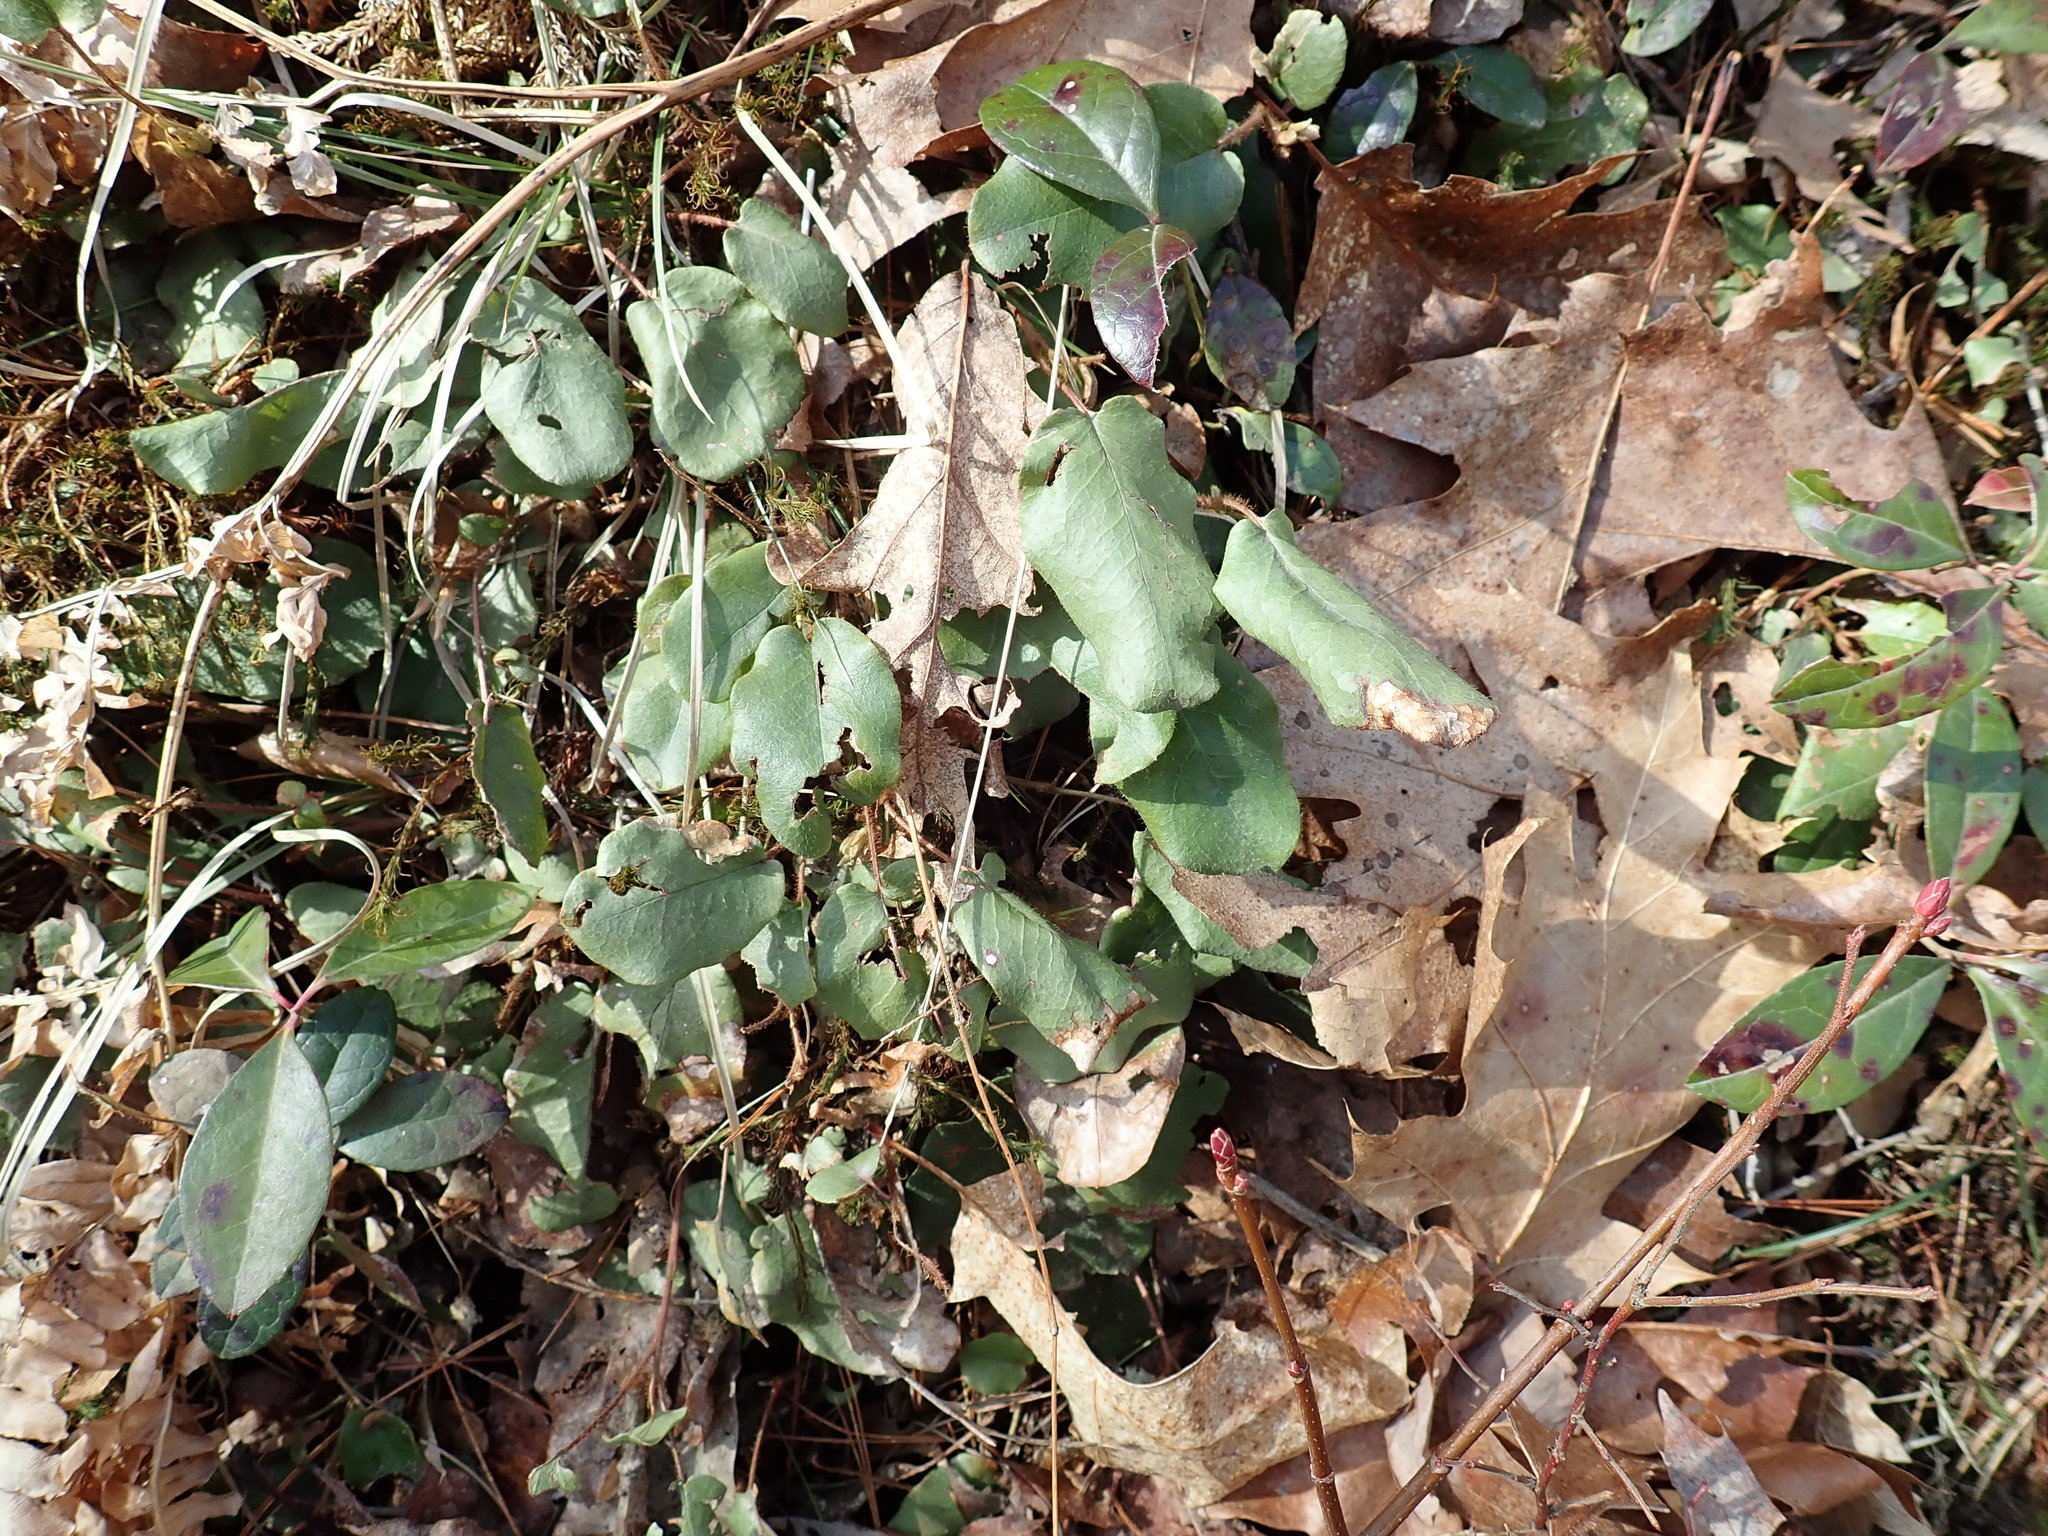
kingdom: Plantae
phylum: Tracheophyta
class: Magnoliopsida
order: Ericales
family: Ericaceae
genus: Epigaea
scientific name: Epigaea repens
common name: Gravelroot
